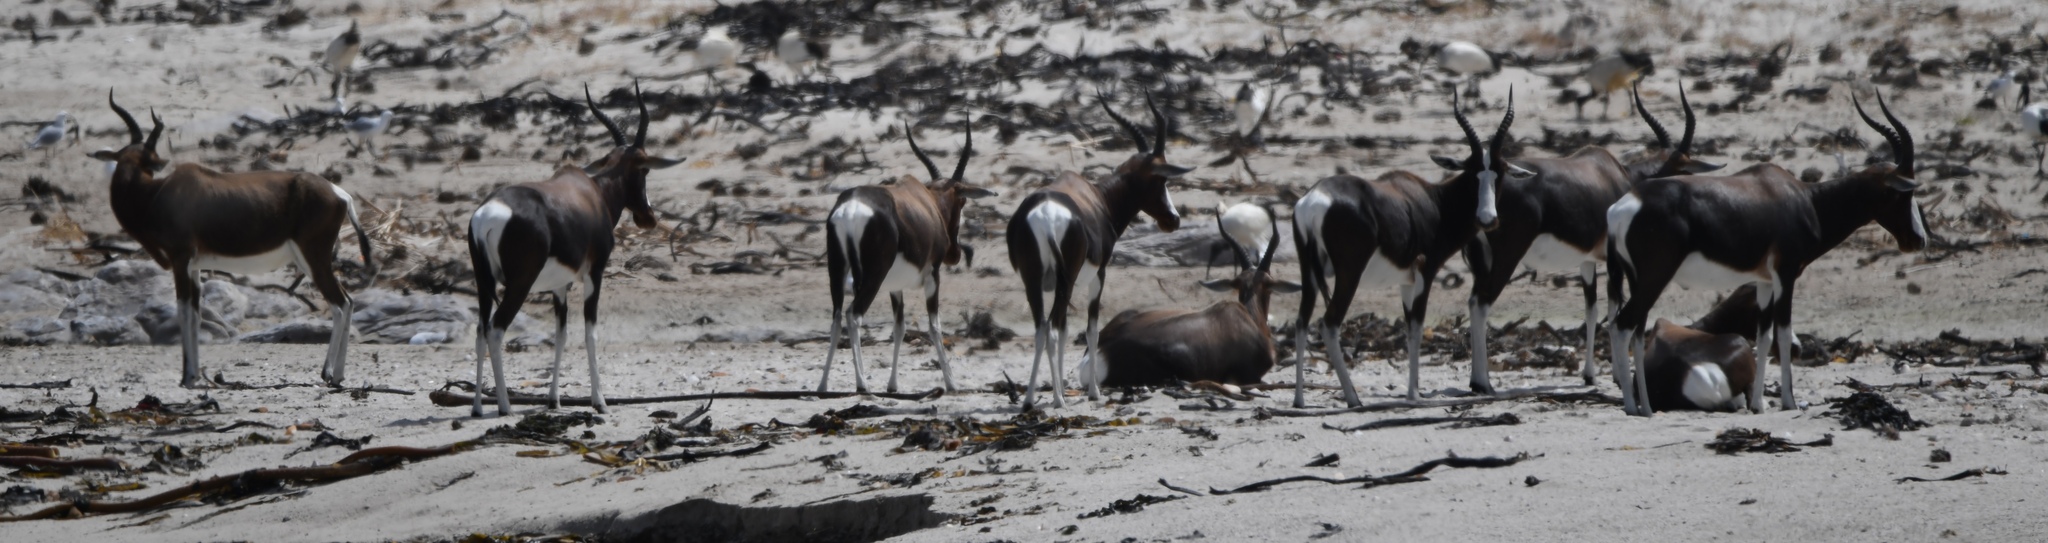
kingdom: Animalia
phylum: Chordata
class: Mammalia
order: Artiodactyla
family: Bovidae
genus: Damaliscus
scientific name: Damaliscus pygargus
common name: Bontebok
